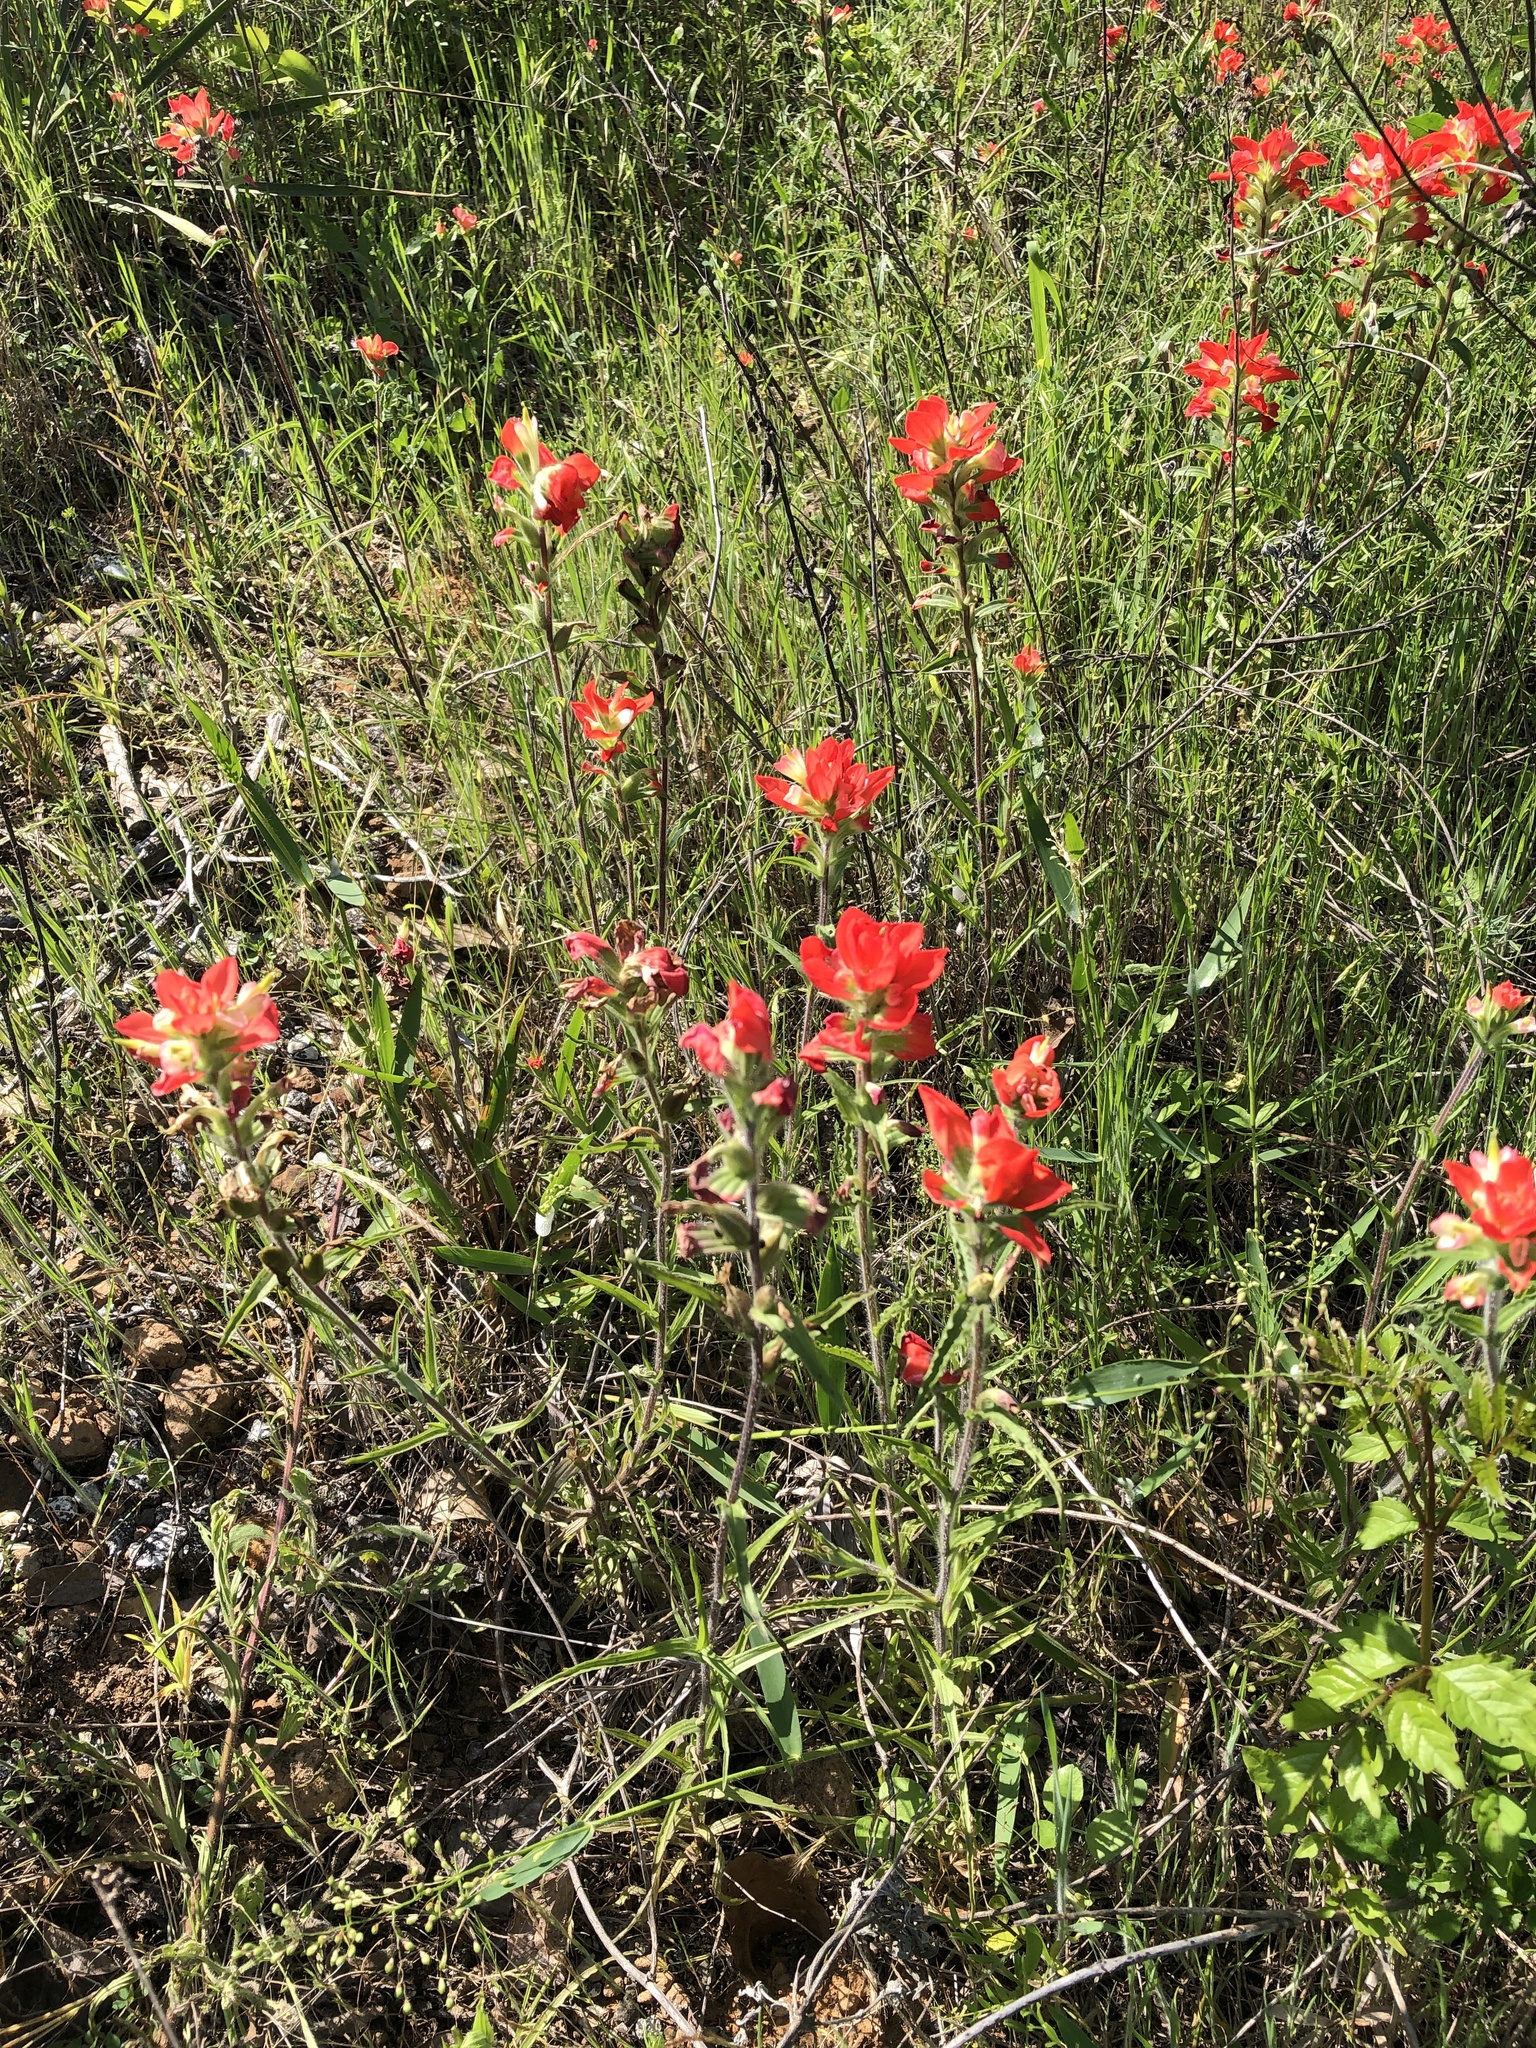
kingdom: Plantae
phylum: Tracheophyta
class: Magnoliopsida
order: Lamiales
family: Orobanchaceae
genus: Castilleja
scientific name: Castilleja indivisa
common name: Texas paintbrush
